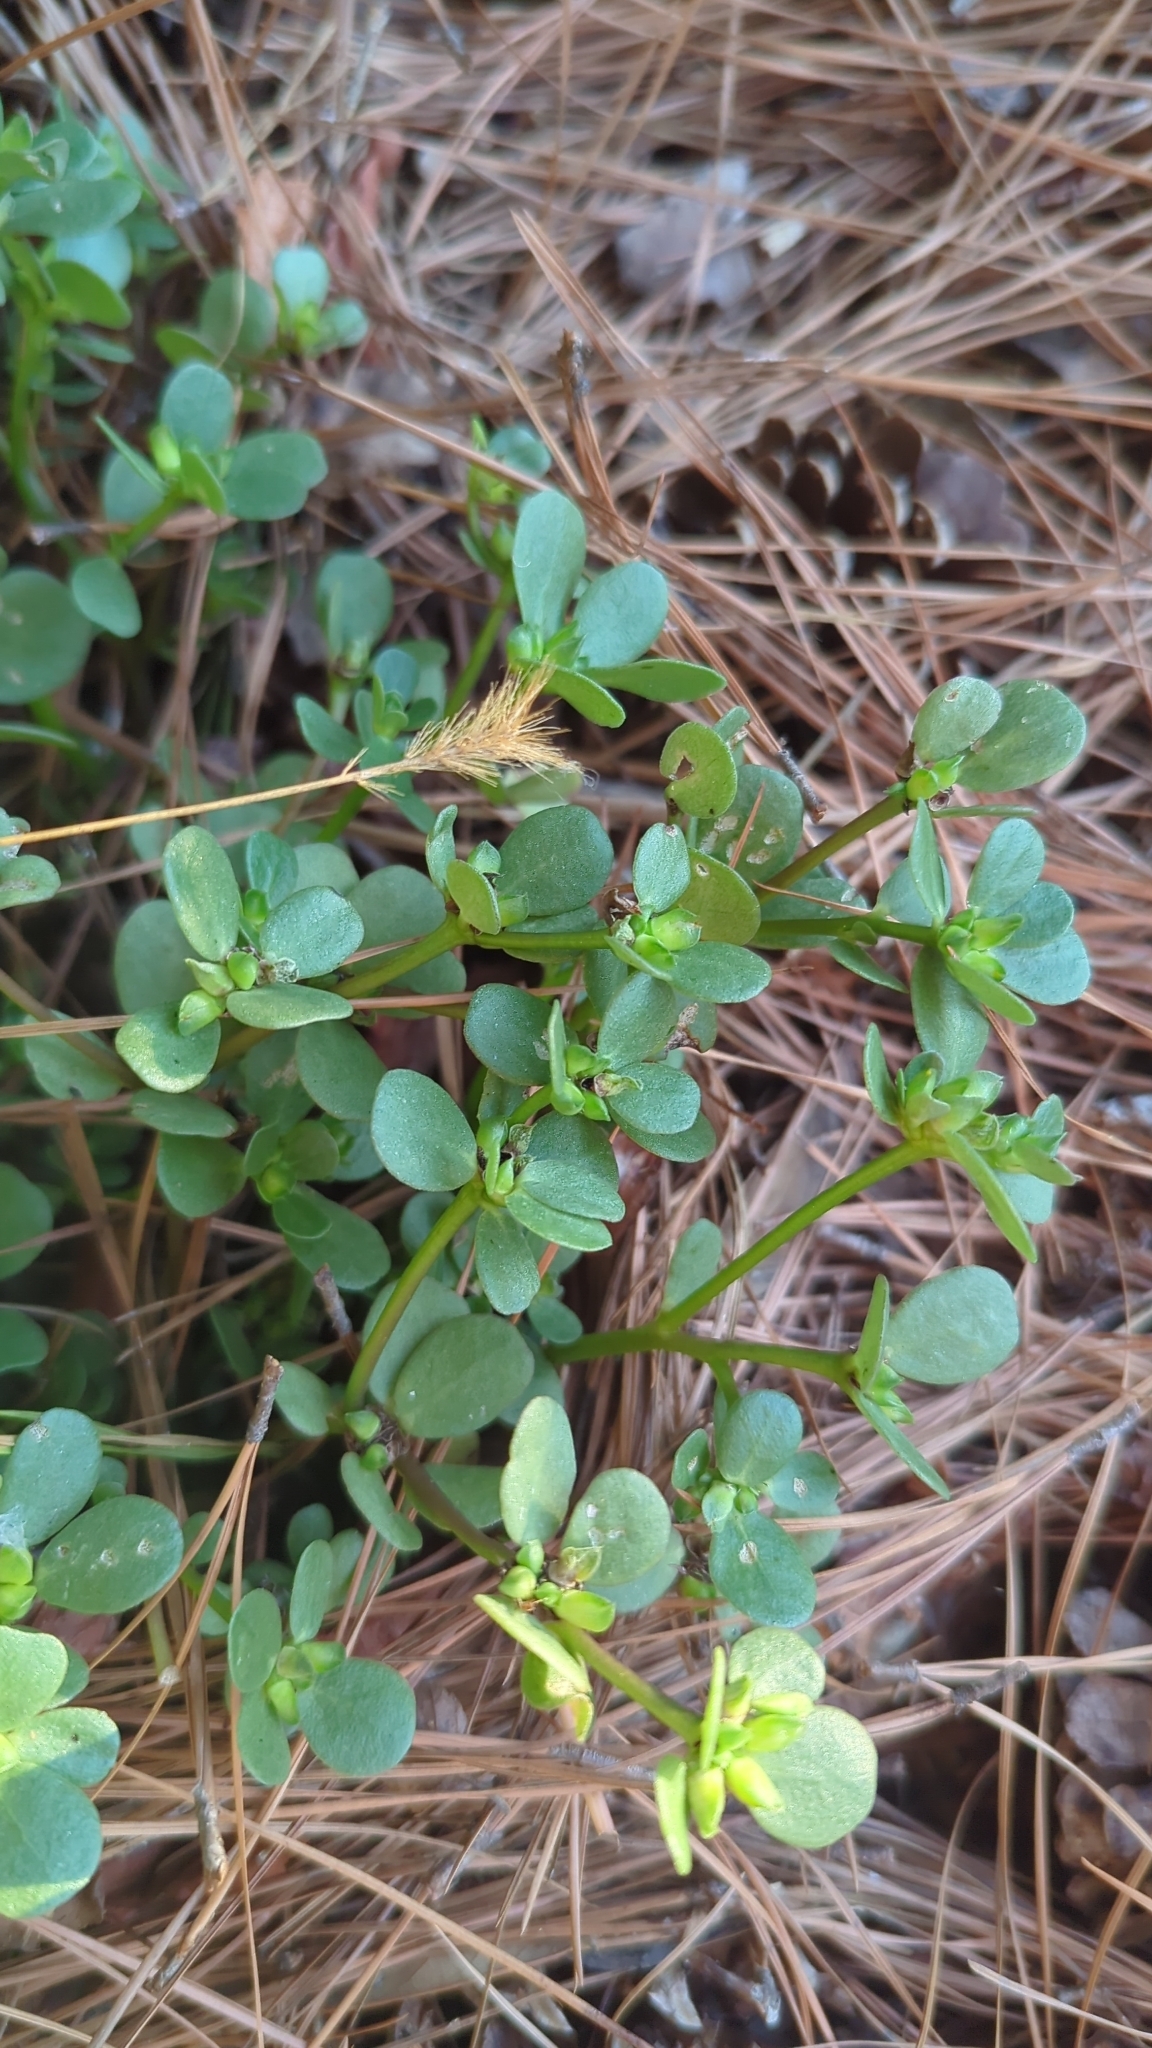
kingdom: Plantae
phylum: Tracheophyta
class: Magnoliopsida
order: Caryophyllales
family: Portulacaceae
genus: Portulaca
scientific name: Portulaca oleracea
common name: Common purslane
